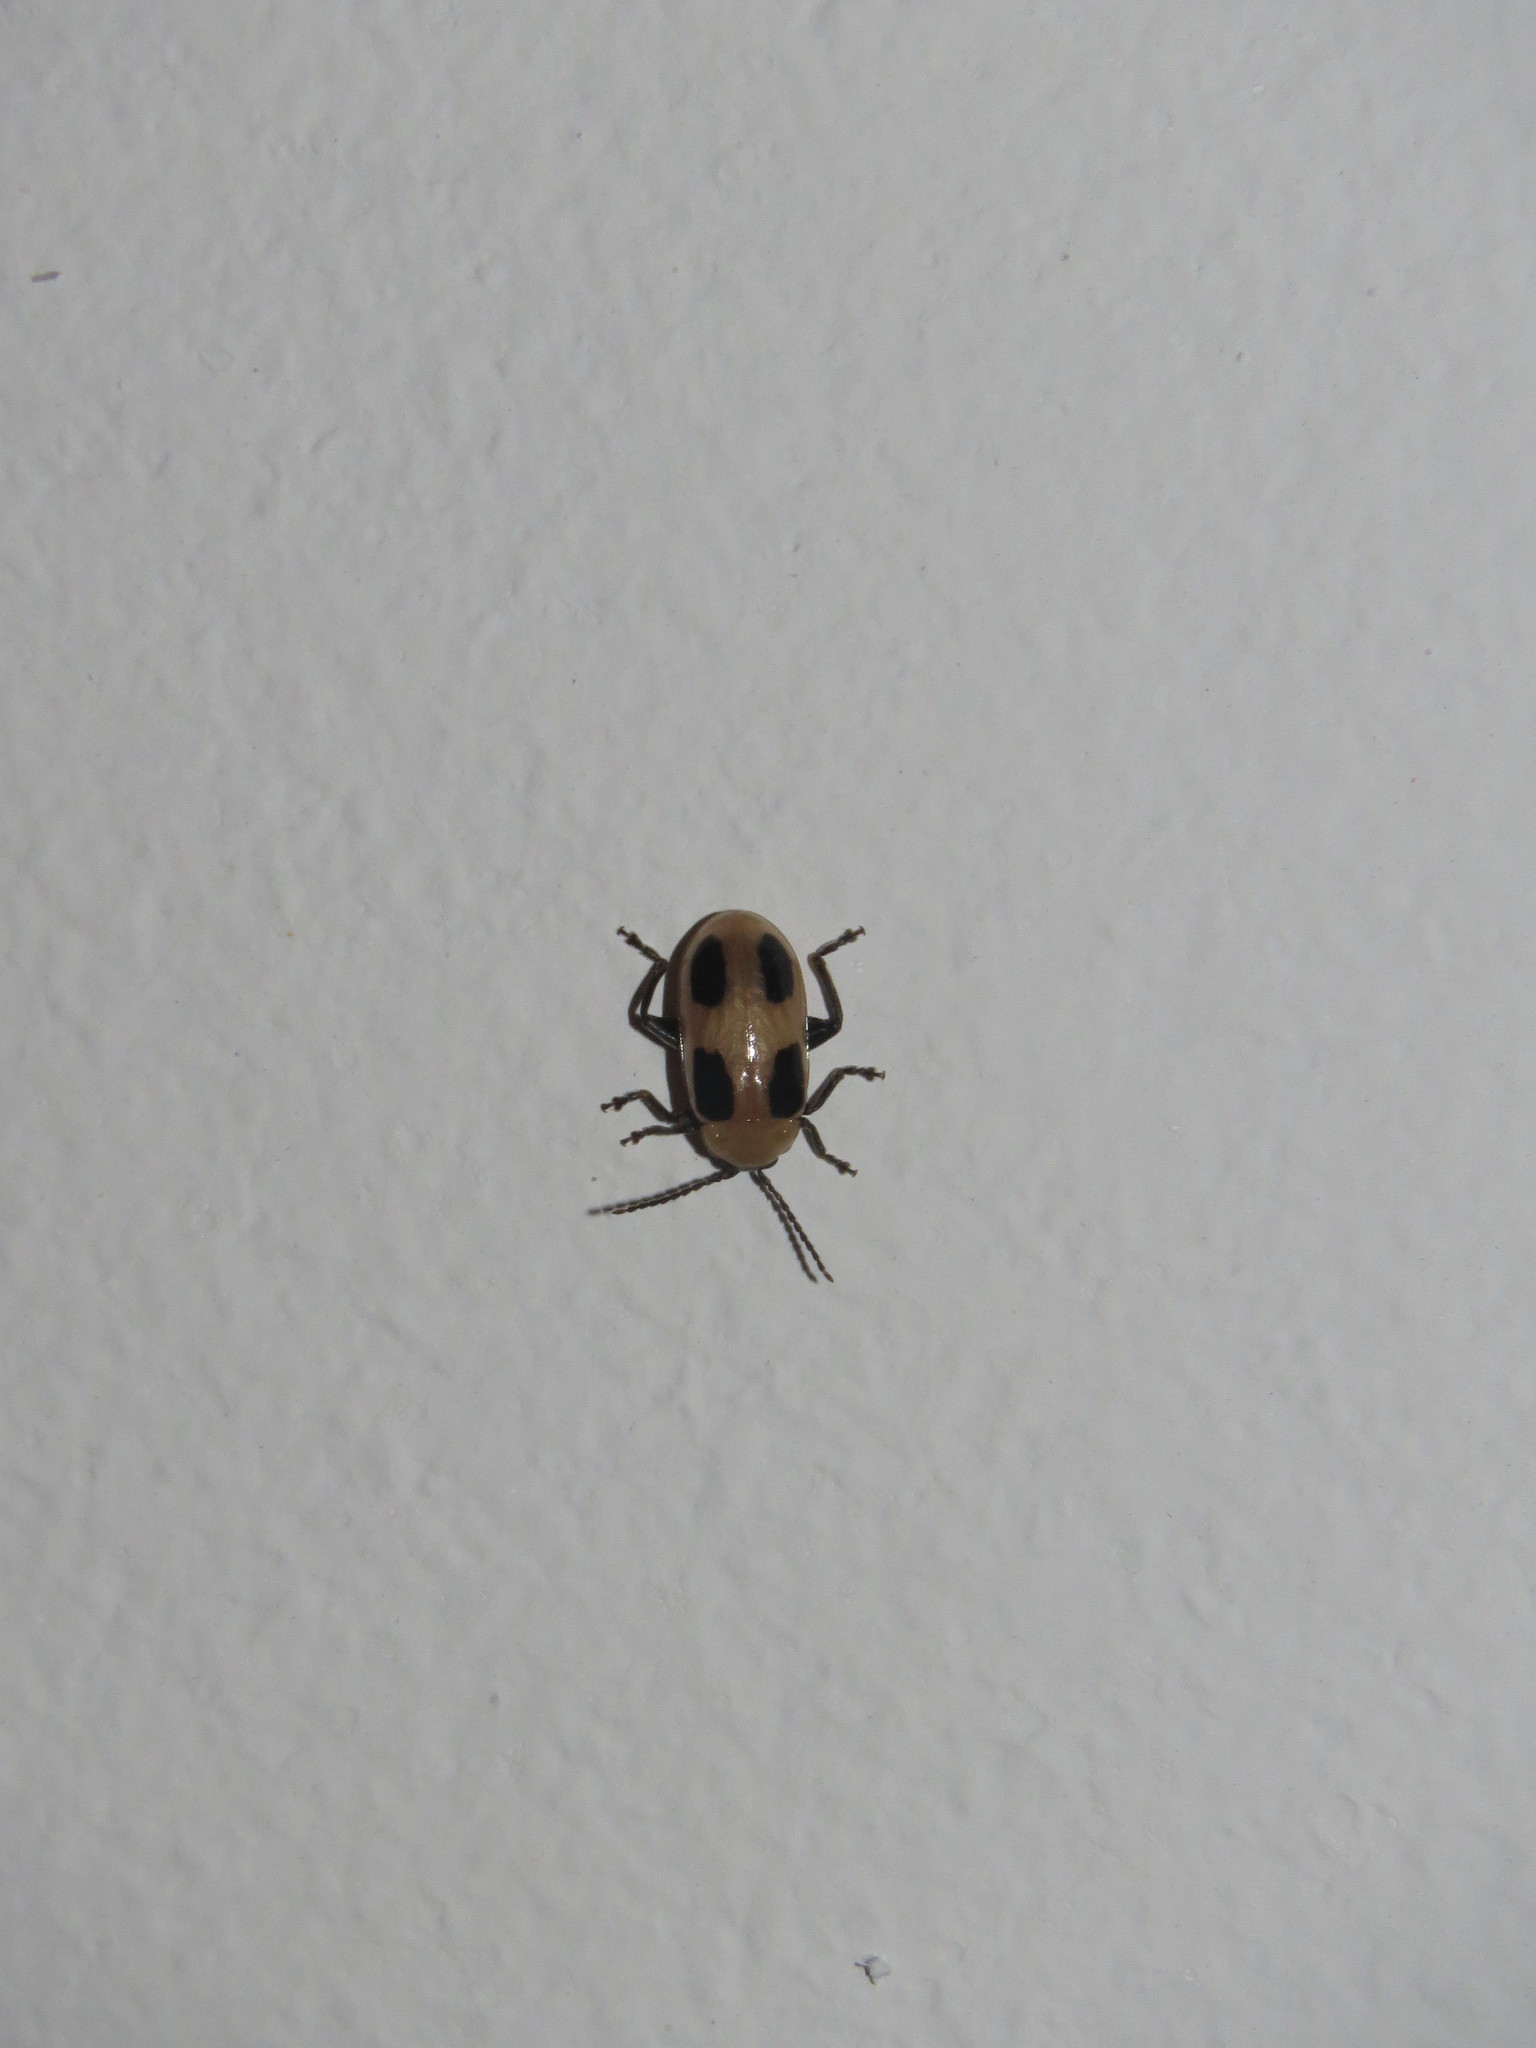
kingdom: Animalia
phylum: Arthropoda
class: Insecta
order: Coleoptera
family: Chrysomelidae
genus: Lacpatica
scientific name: Lacpatica
